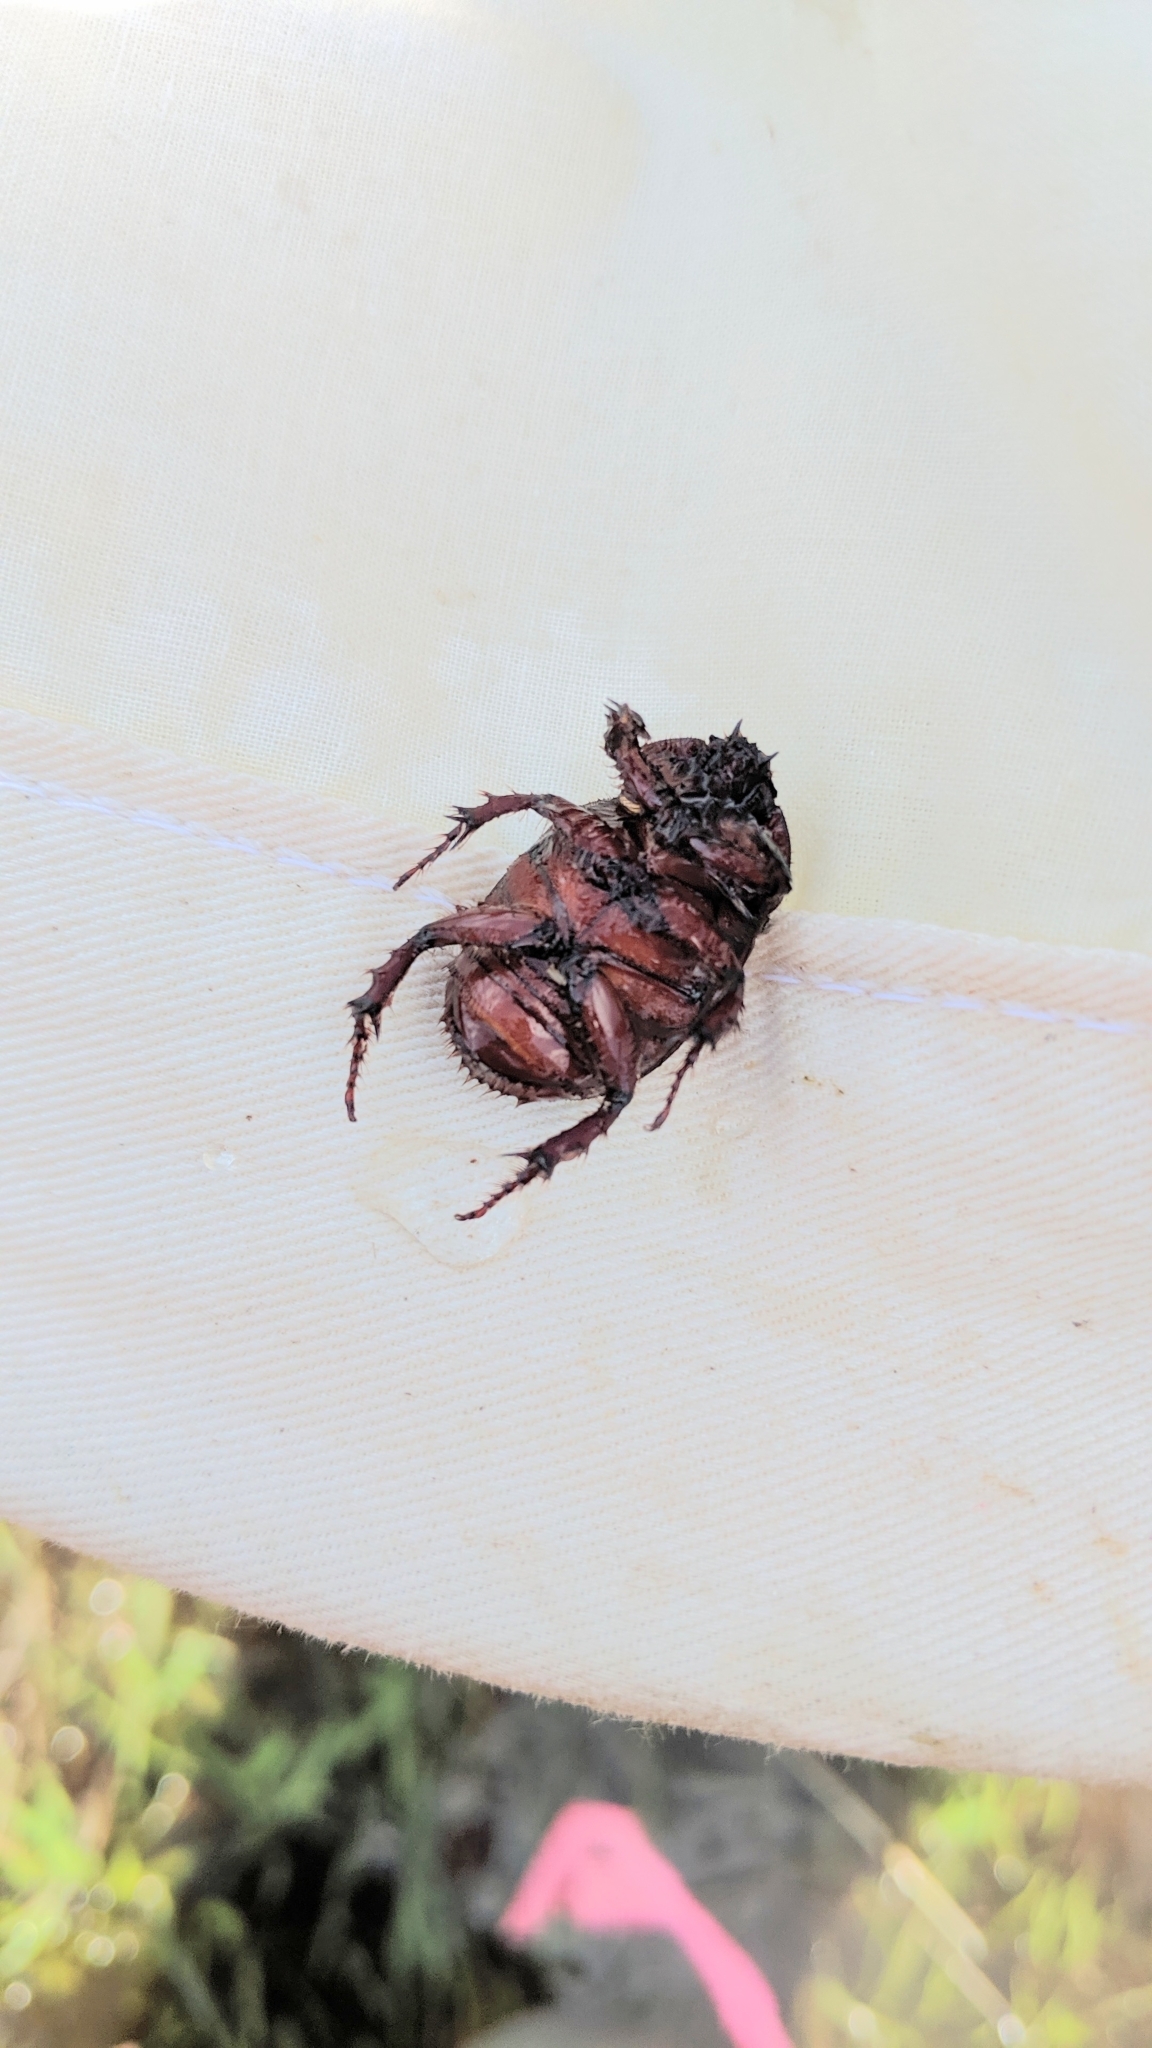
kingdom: Animalia
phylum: Arthropoda
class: Insecta
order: Coleoptera
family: Scarabaeidae
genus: Strategus
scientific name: Strategus mormon
